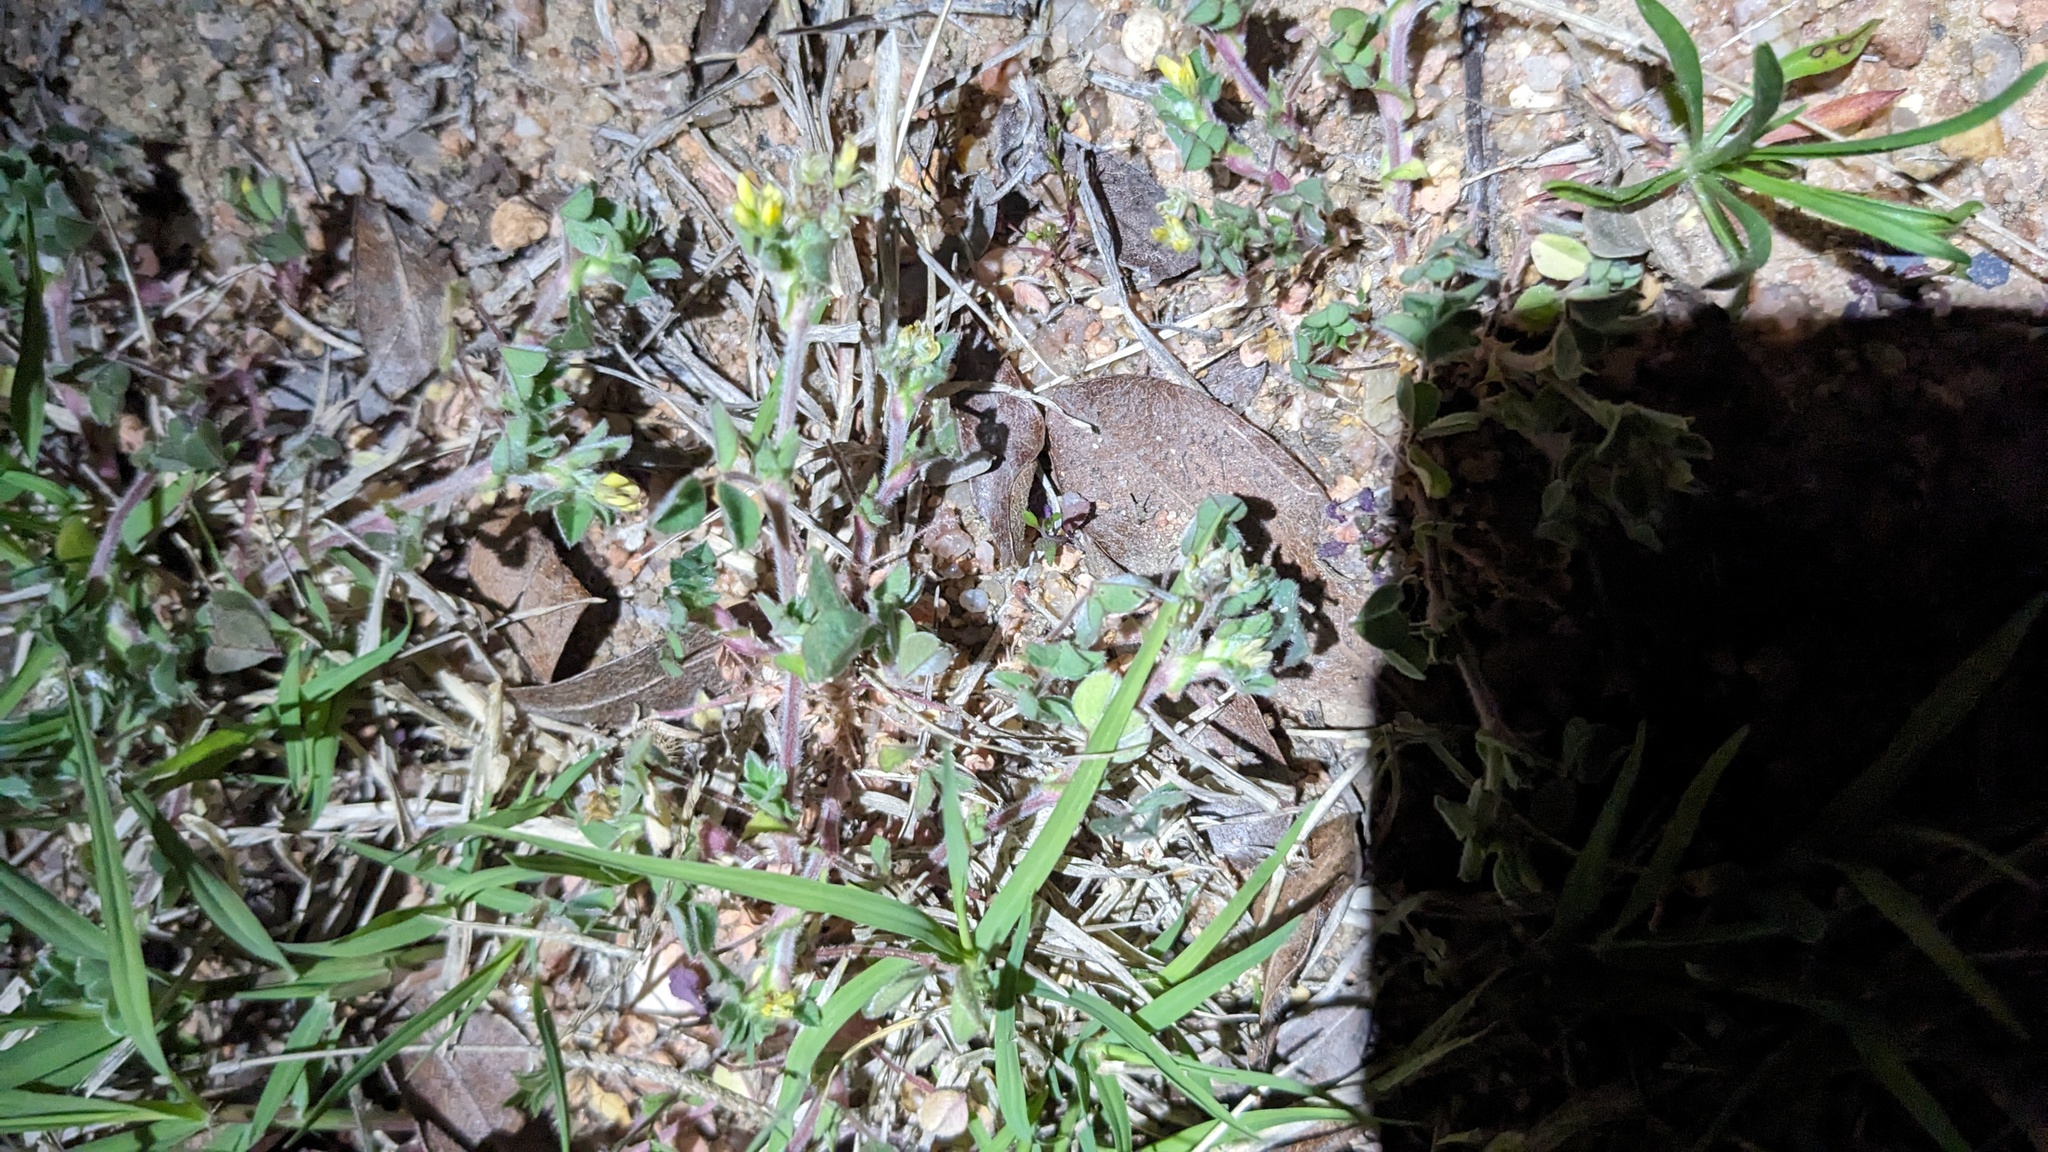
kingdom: Plantae
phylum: Tracheophyta
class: Magnoliopsida
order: Fabales
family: Fabaceae
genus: Medicago
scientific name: Medicago minima
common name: Little bur-clover
